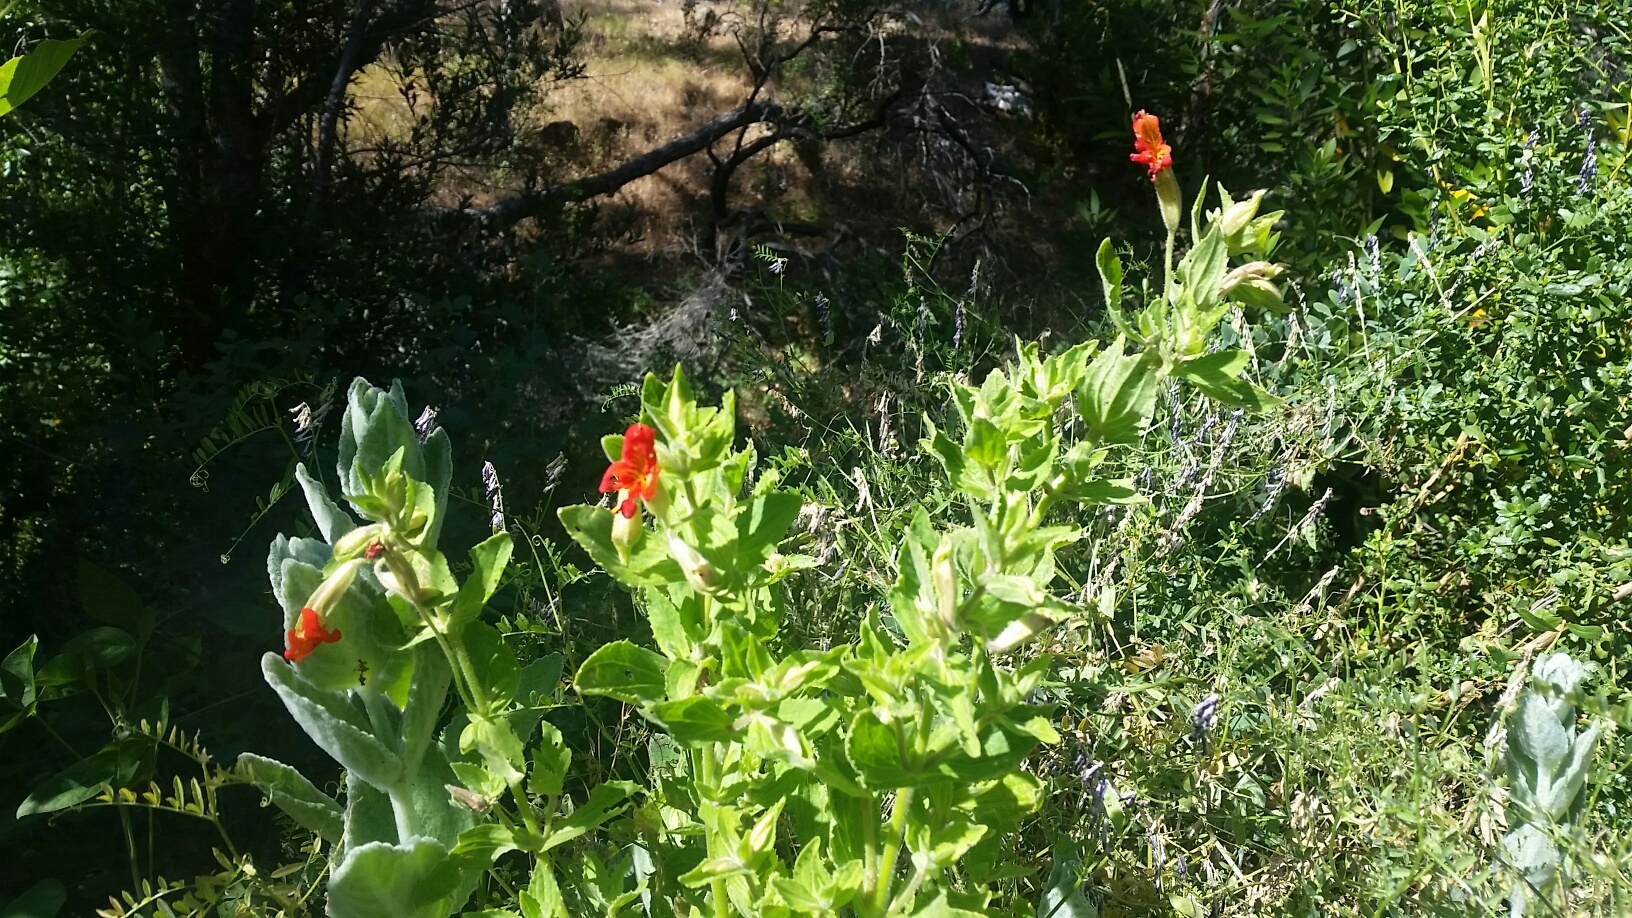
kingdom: Plantae
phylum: Tracheophyta
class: Magnoliopsida
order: Lamiales
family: Phrymaceae
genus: Erythranthe
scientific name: Erythranthe cardinalis
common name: Scarlet monkey-flower
